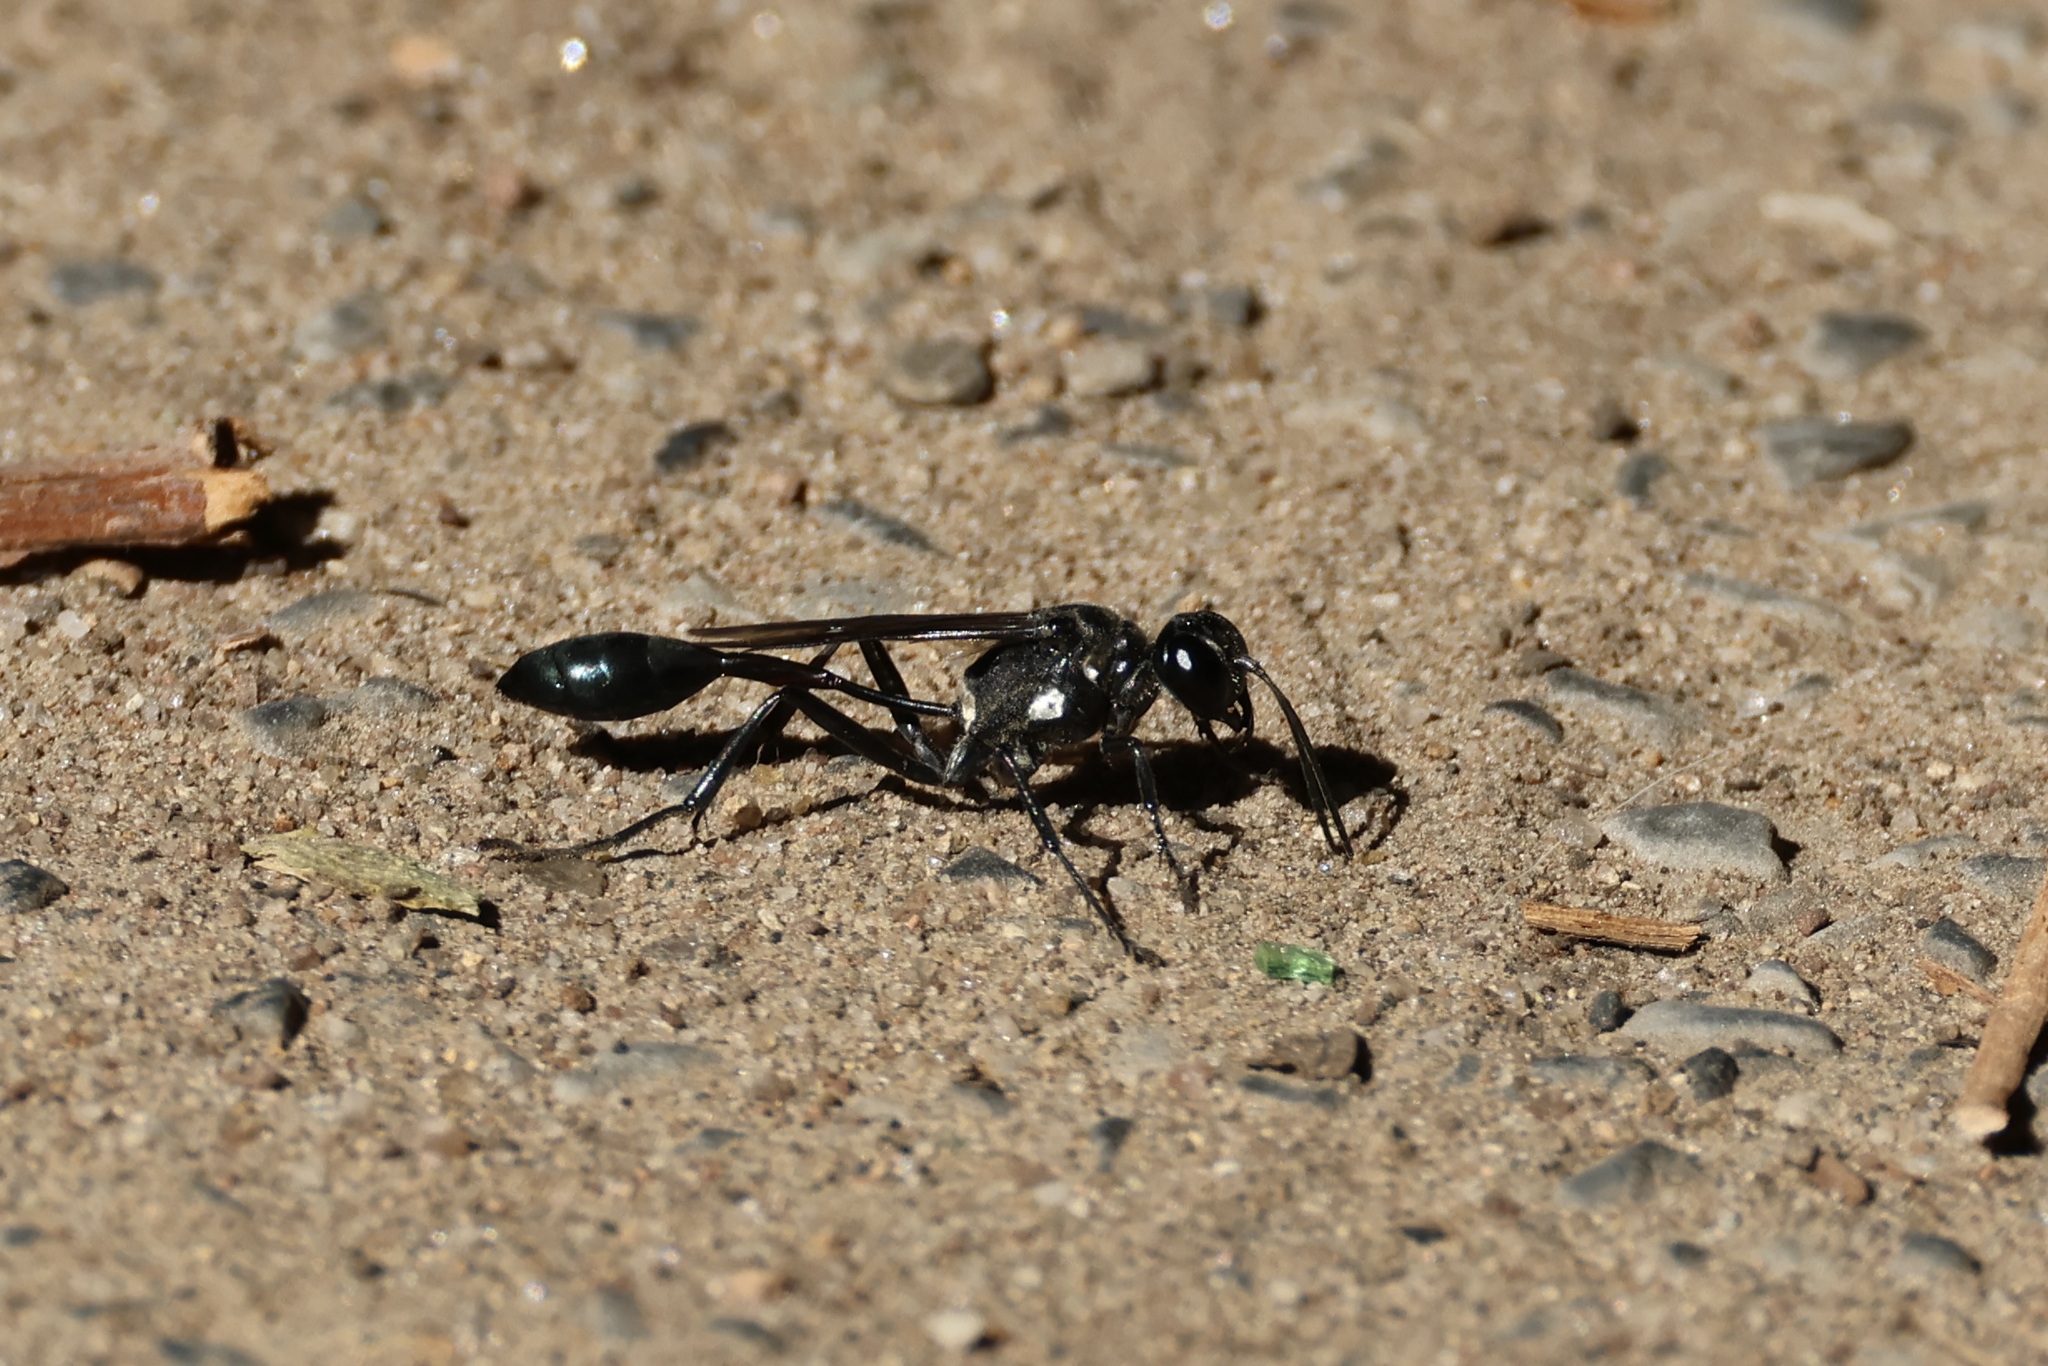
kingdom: Animalia
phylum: Arthropoda
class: Insecta
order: Hymenoptera
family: Sphecidae
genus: Eremnophila
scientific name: Eremnophila aureonotata
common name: Gold-marked thread-waisted wasp
